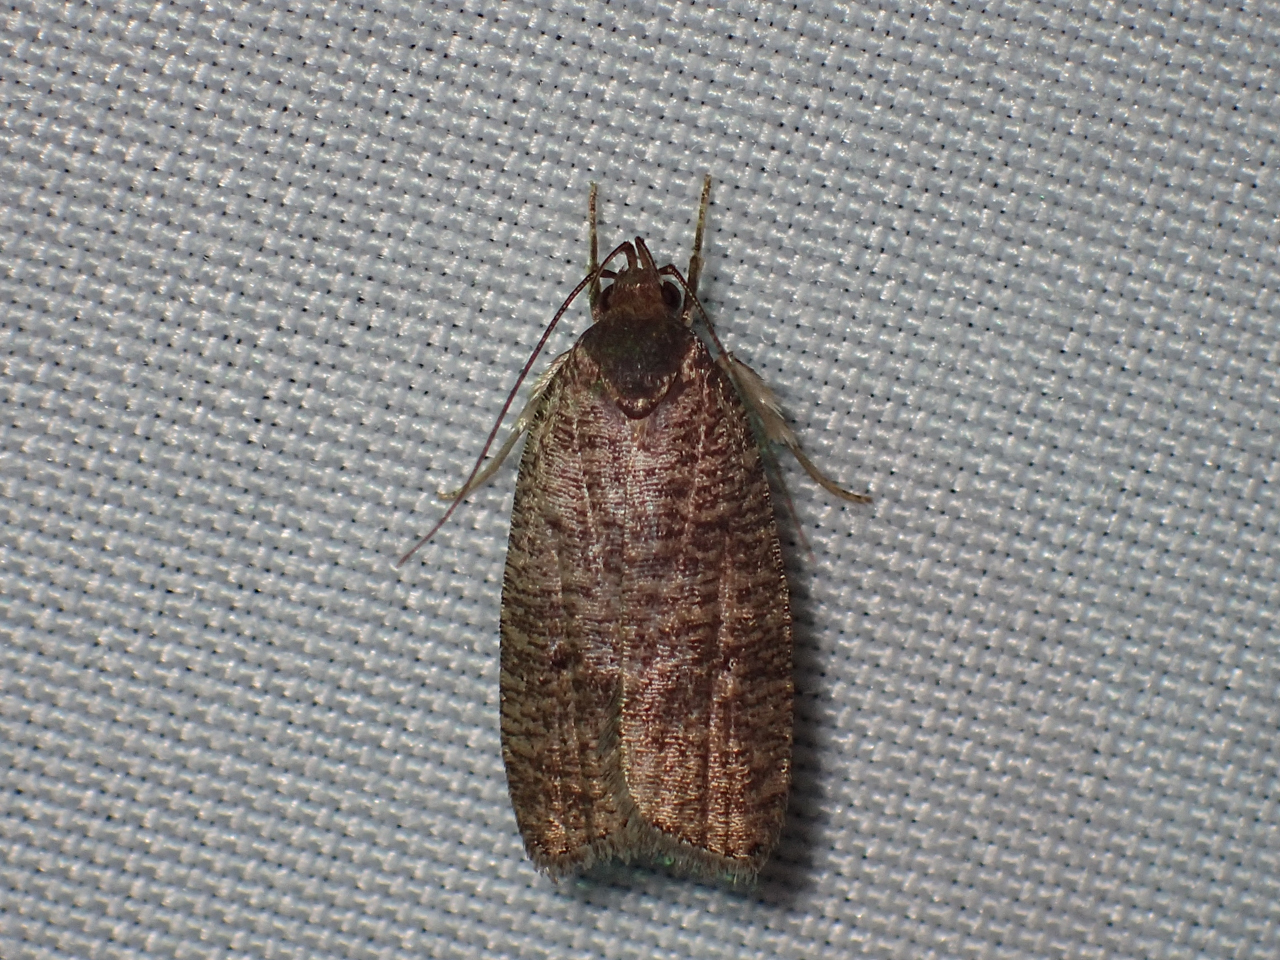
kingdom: Animalia
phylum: Arthropoda
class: Insecta
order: Lepidoptera
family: Depressariidae
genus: Psilocorsis
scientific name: Psilocorsis reflexella
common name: Dotted leaftier moth
